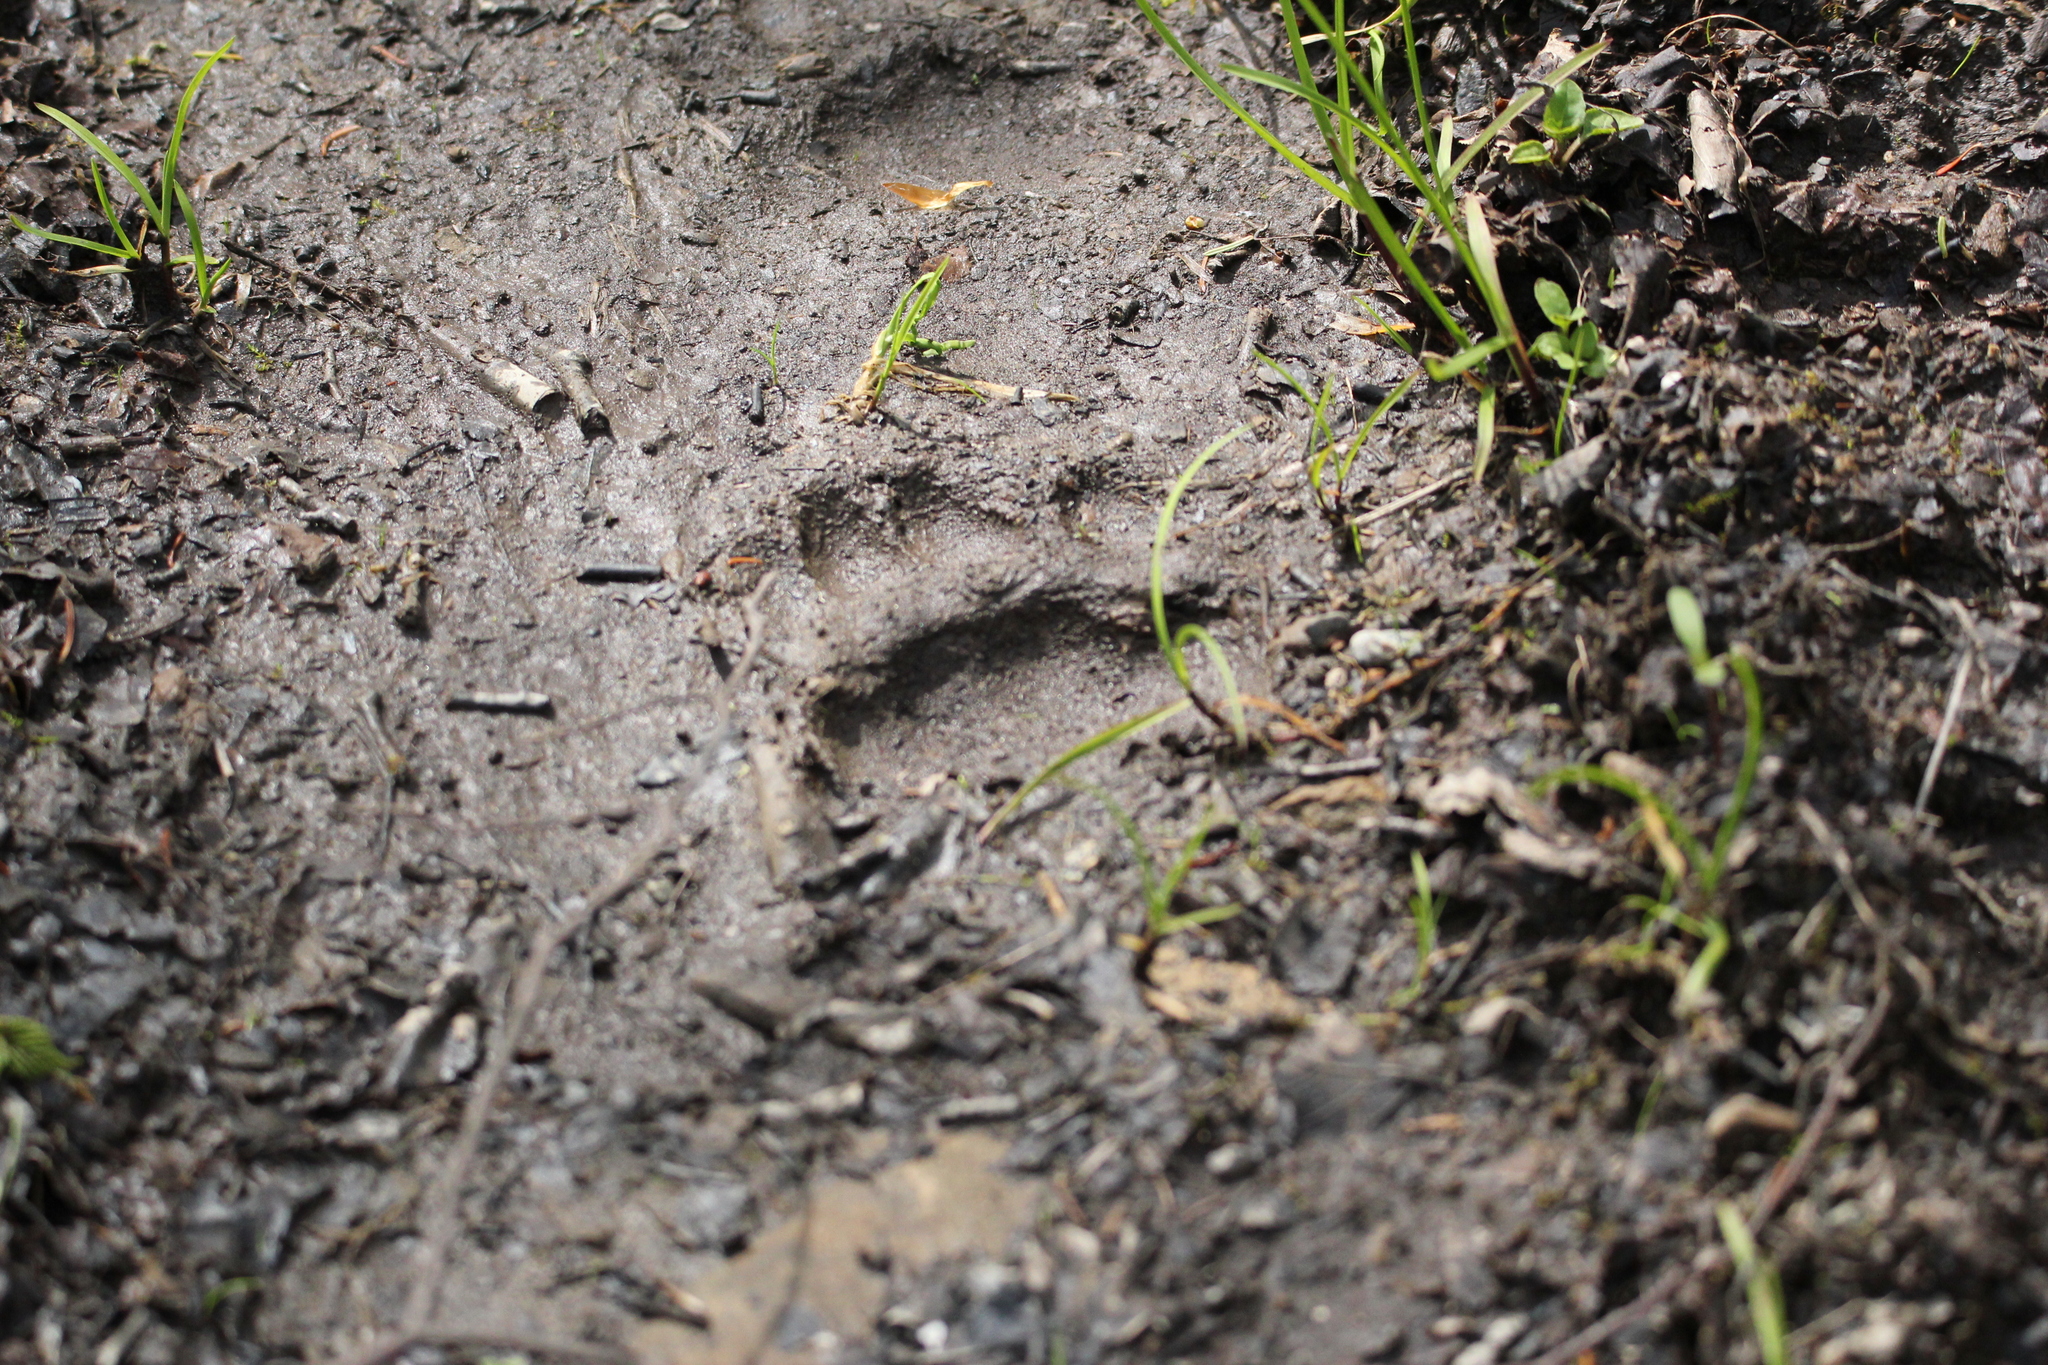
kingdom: Animalia
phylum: Chordata
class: Mammalia
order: Carnivora
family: Ursidae
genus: Ursus
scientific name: Ursus americanus
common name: American black bear
